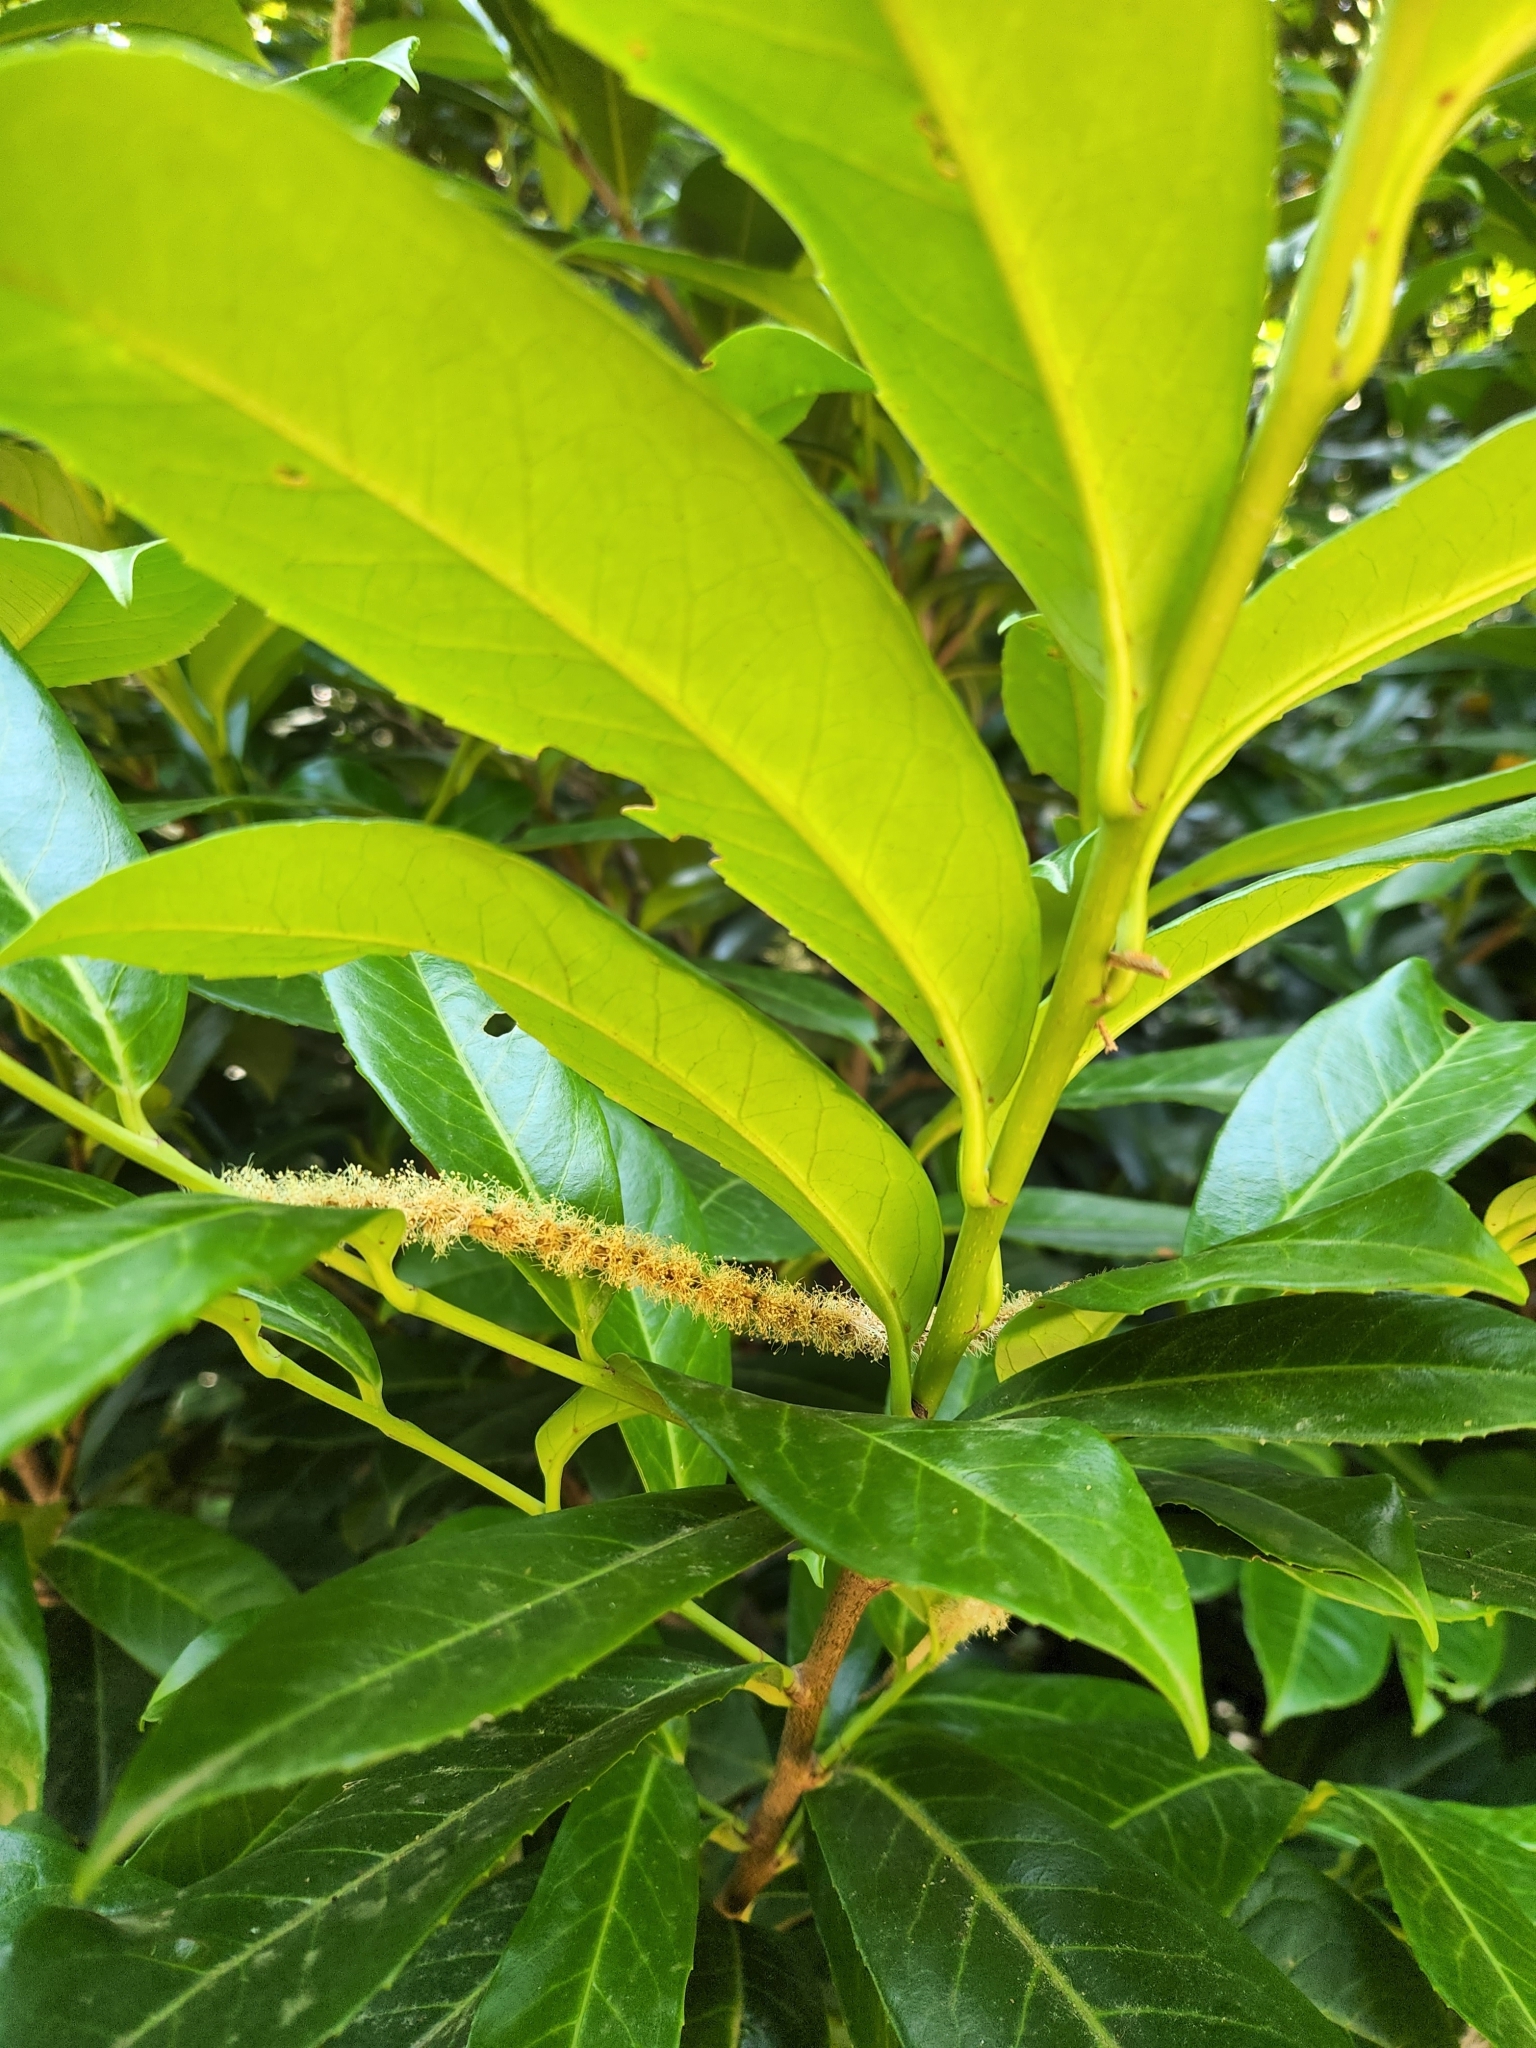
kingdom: Plantae
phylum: Tracheophyta
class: Magnoliopsida
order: Rosales
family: Rosaceae
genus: Prunus
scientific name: Prunus laurocerasus
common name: Cherry laurel
